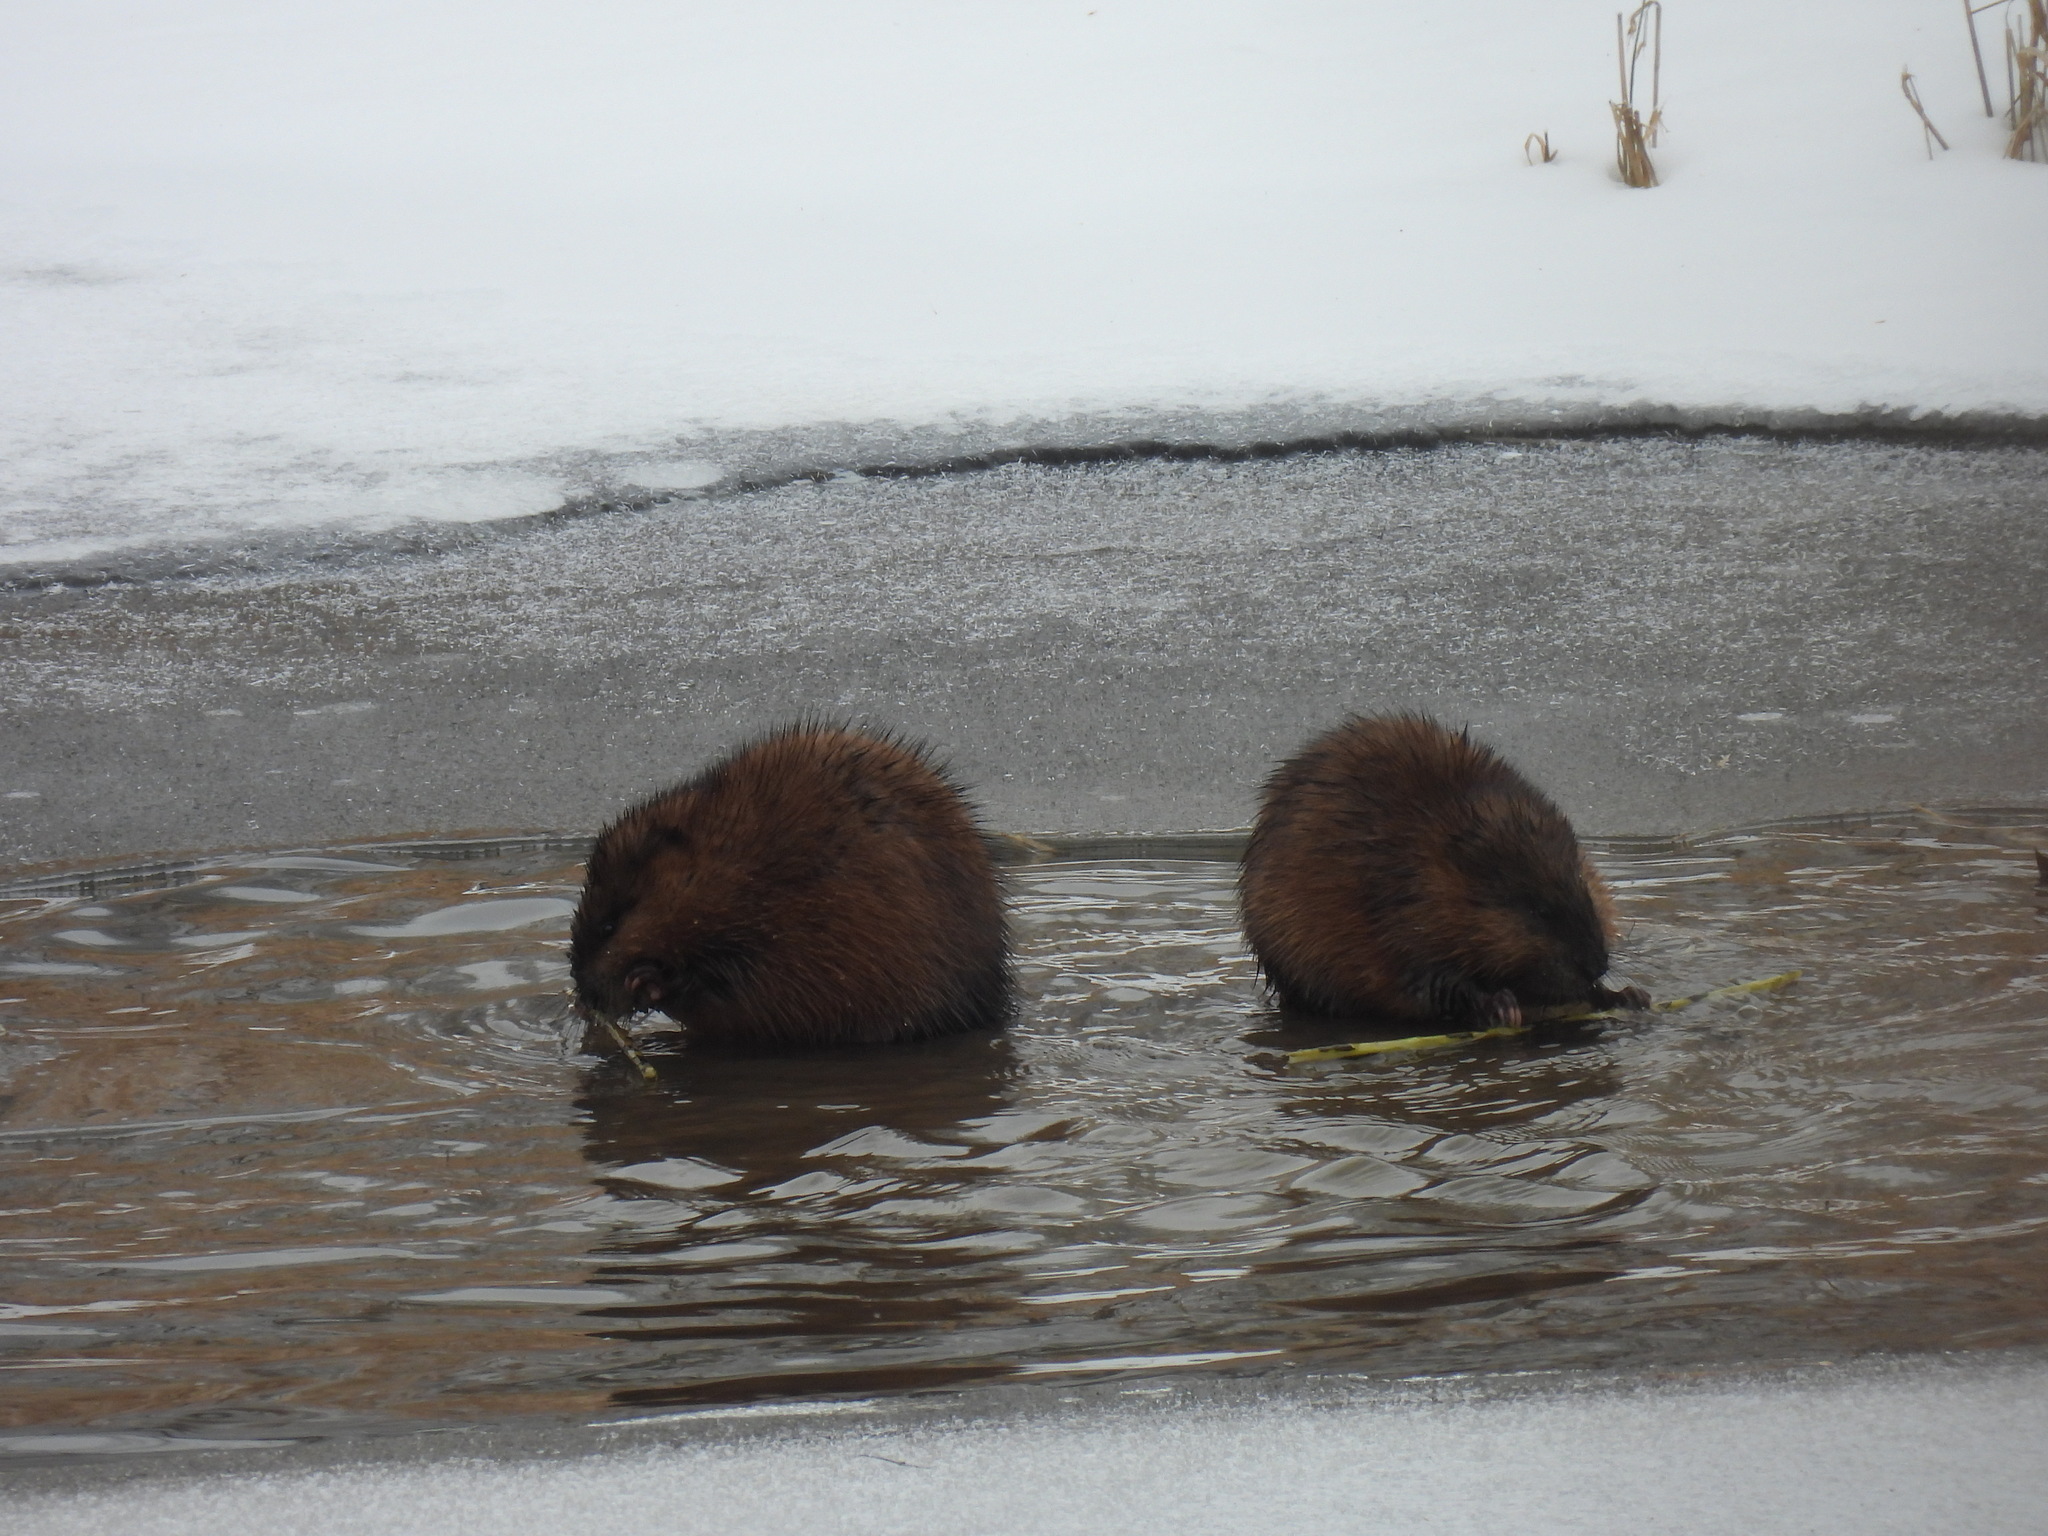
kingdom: Animalia
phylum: Chordata
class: Mammalia
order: Rodentia
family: Cricetidae
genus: Ondatra
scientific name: Ondatra zibethicus
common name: Muskrat
